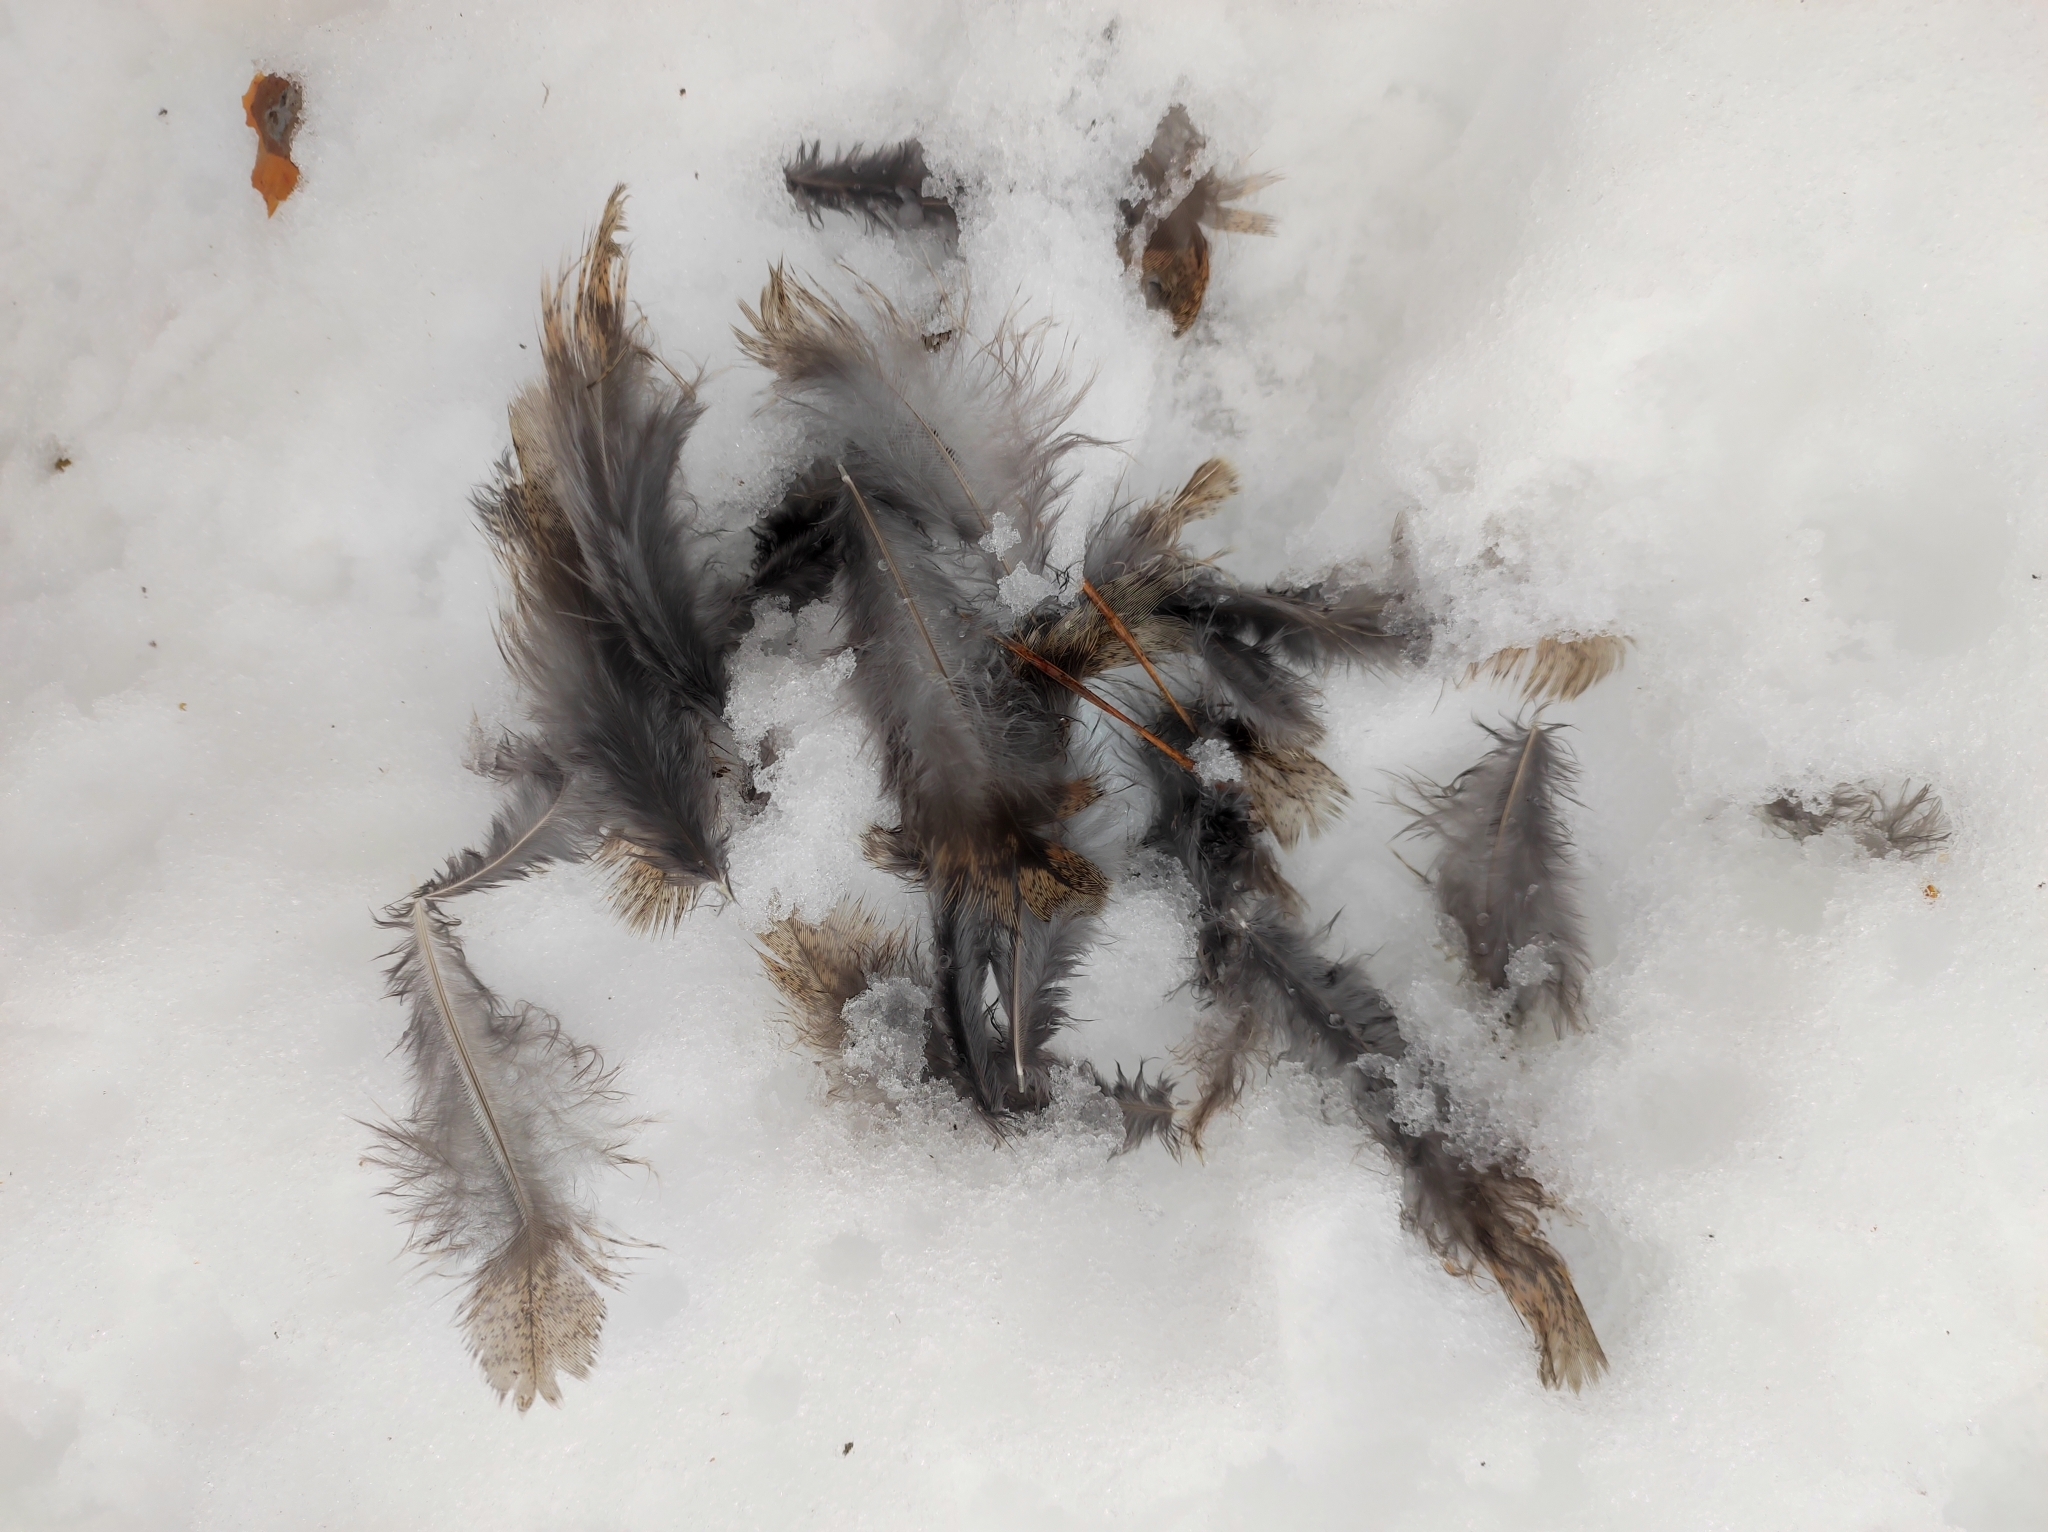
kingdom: Animalia
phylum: Chordata
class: Aves
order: Galliformes
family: Phasianidae
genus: Tetrastes
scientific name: Tetrastes bonasia
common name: Hazel grouse
